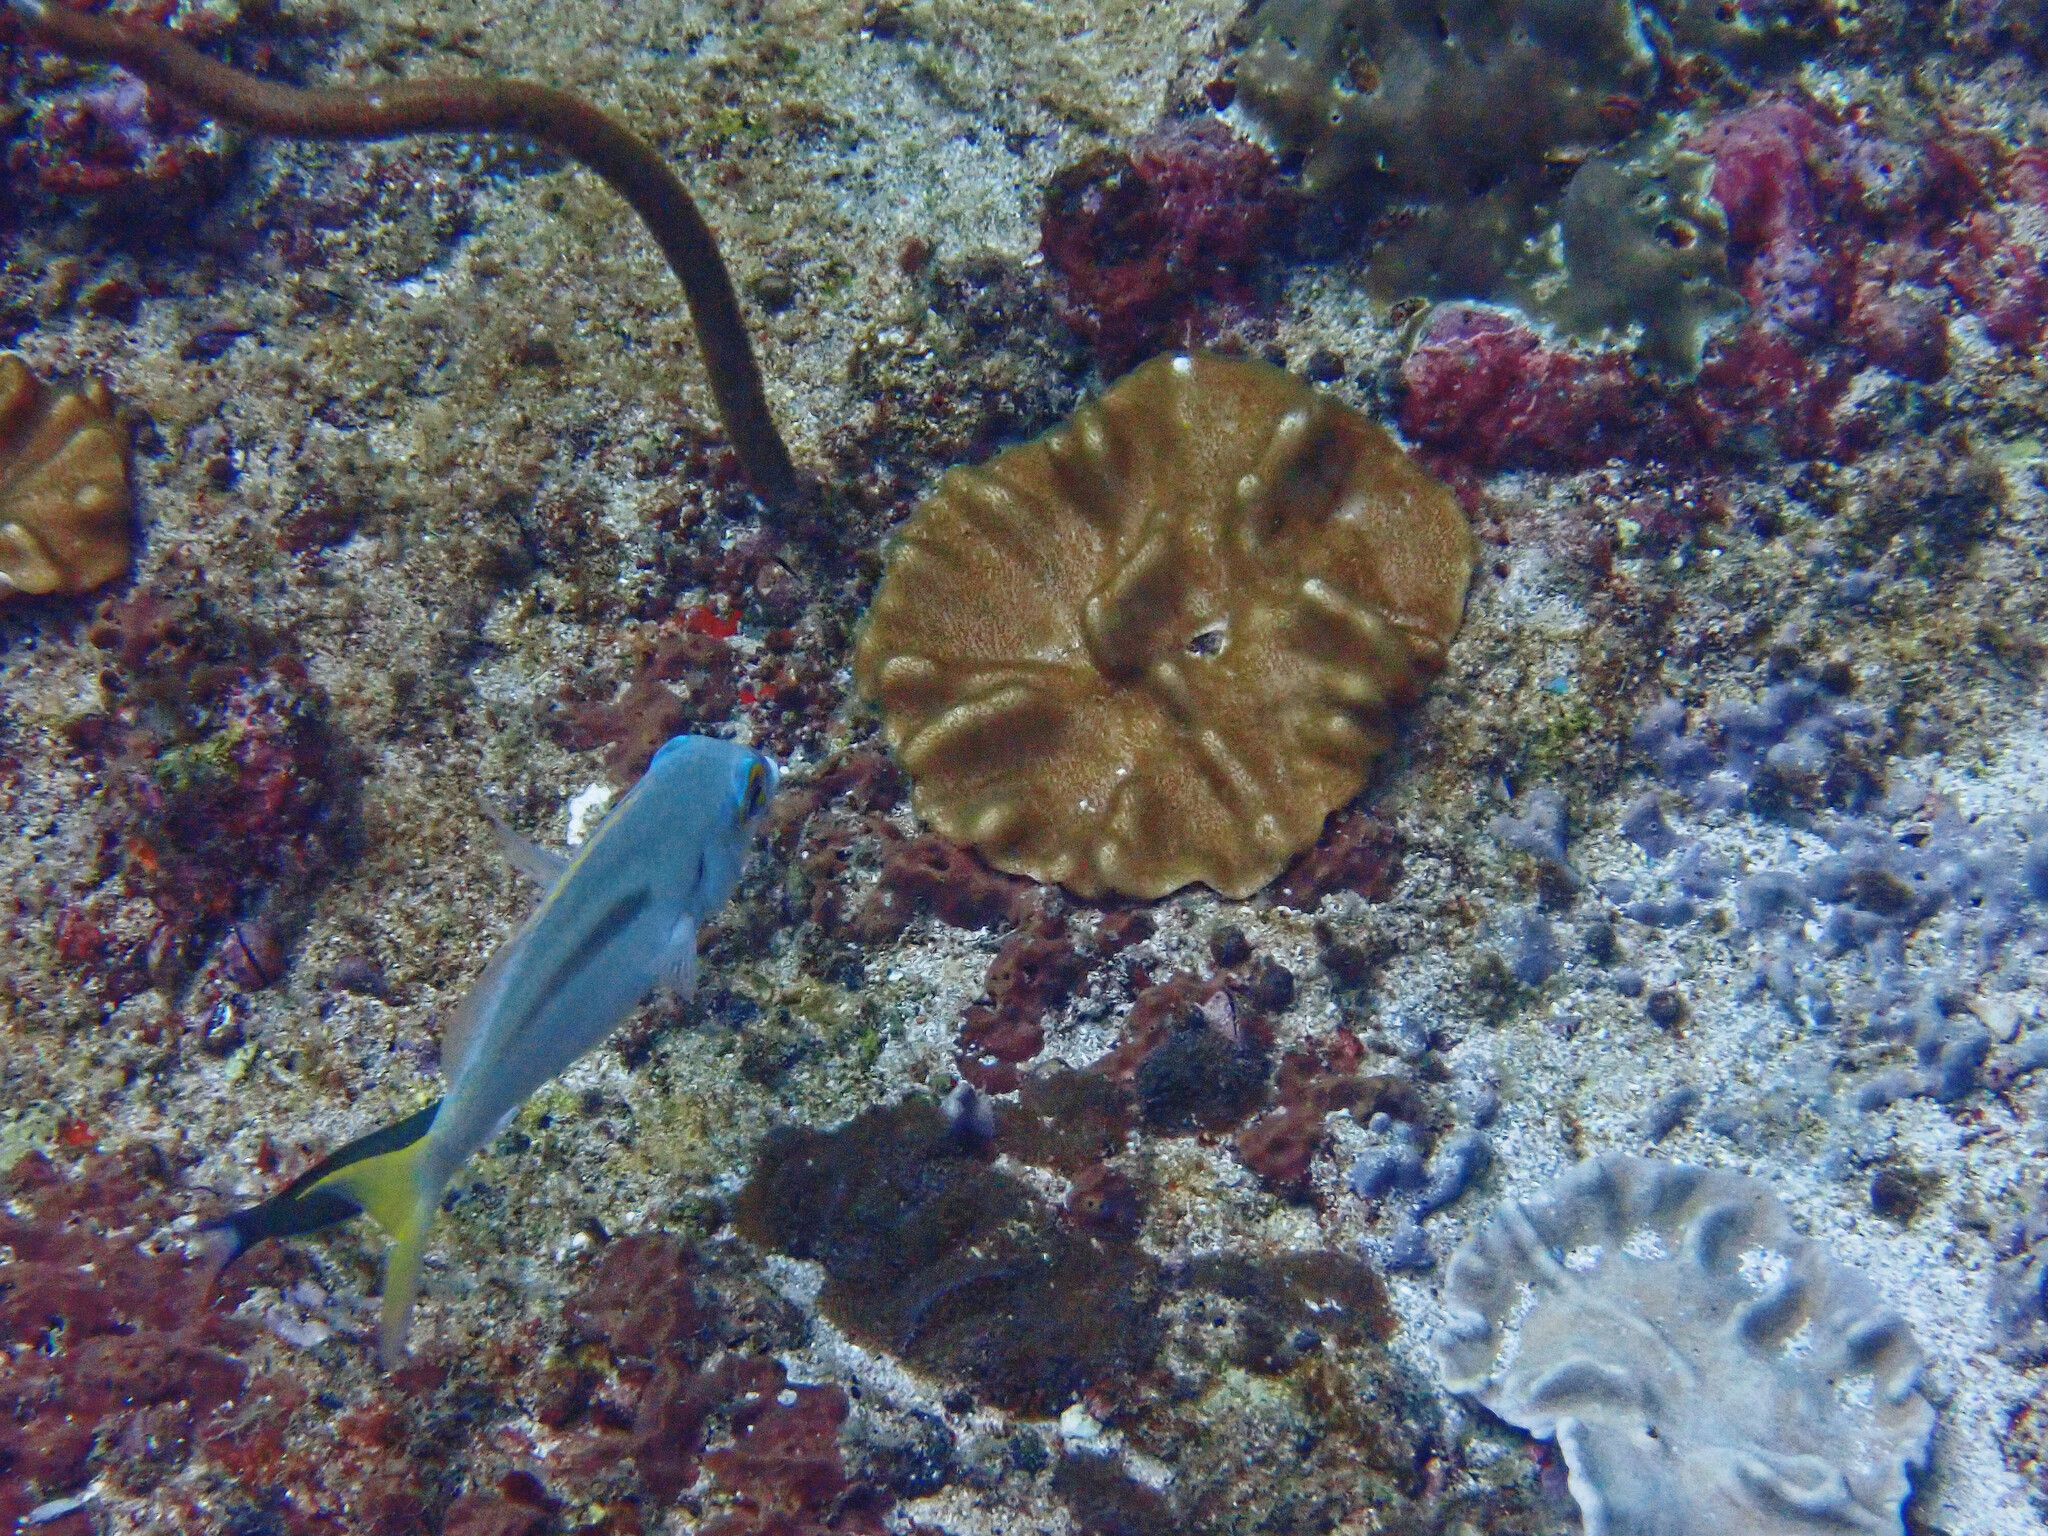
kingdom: Animalia
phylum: Chordata
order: Perciformes
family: Nemipteridae
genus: Scolopsis
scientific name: Scolopsis monogramma
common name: Monogrammed monocle bream
